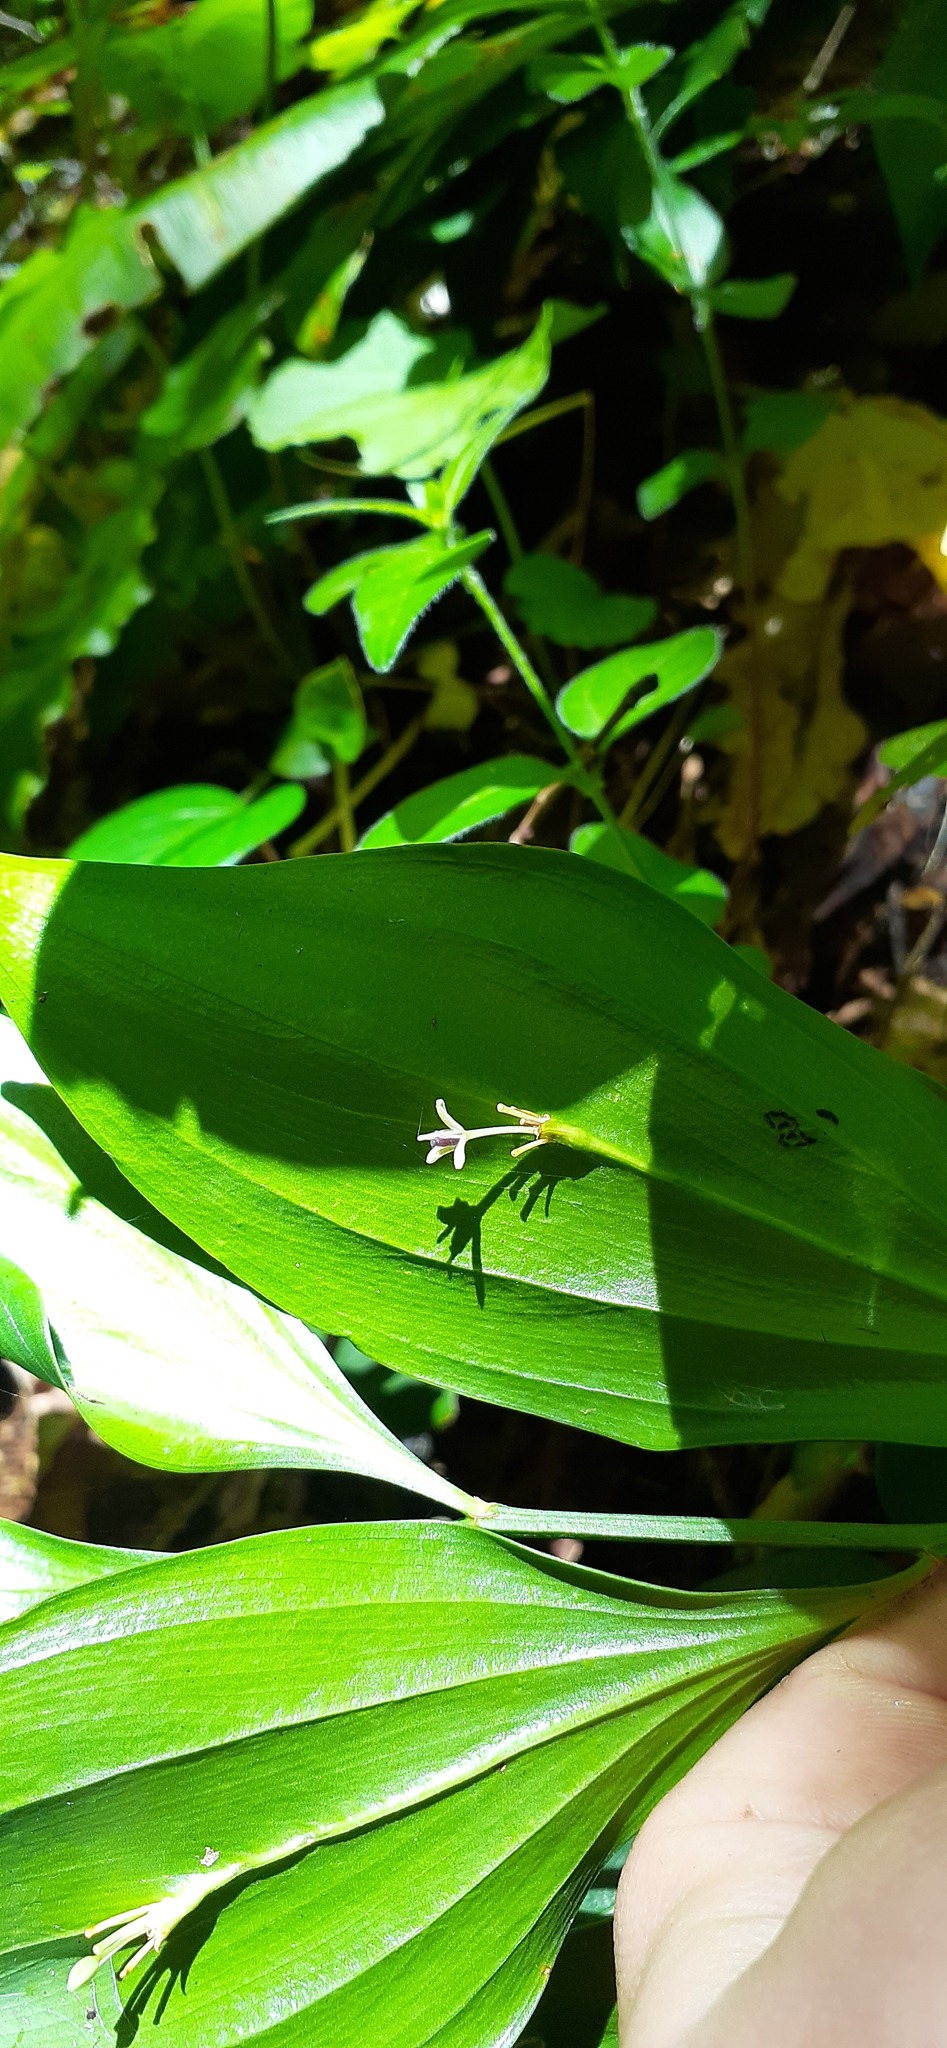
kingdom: Plantae
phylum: Tracheophyta
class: Liliopsida
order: Asparagales
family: Asparagaceae
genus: Ruscus
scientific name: Ruscus colchicus
